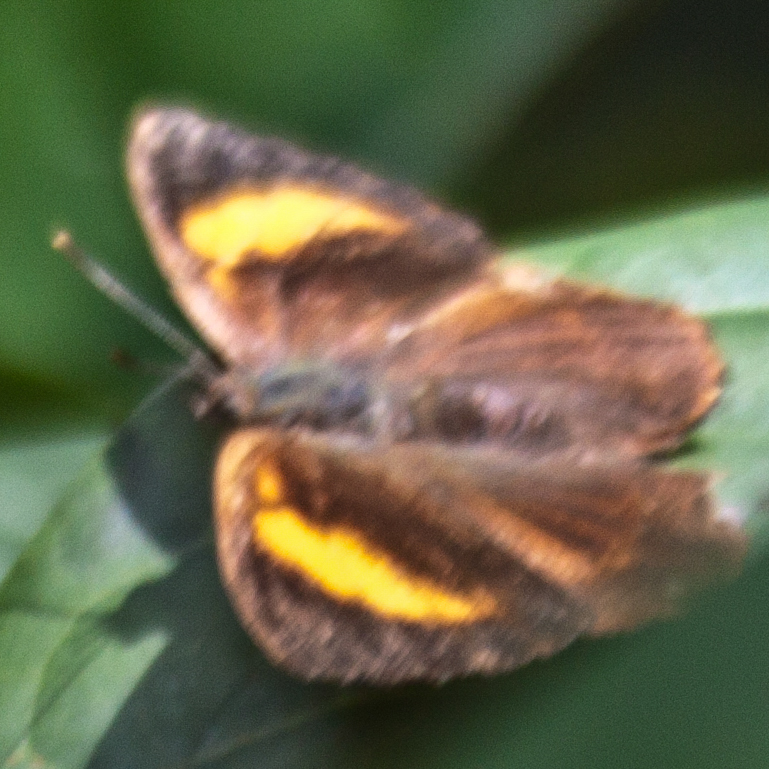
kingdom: Animalia
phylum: Arthropoda
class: Insecta
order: Lepidoptera
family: Lycaenidae
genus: Simiskina
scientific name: Simiskina
